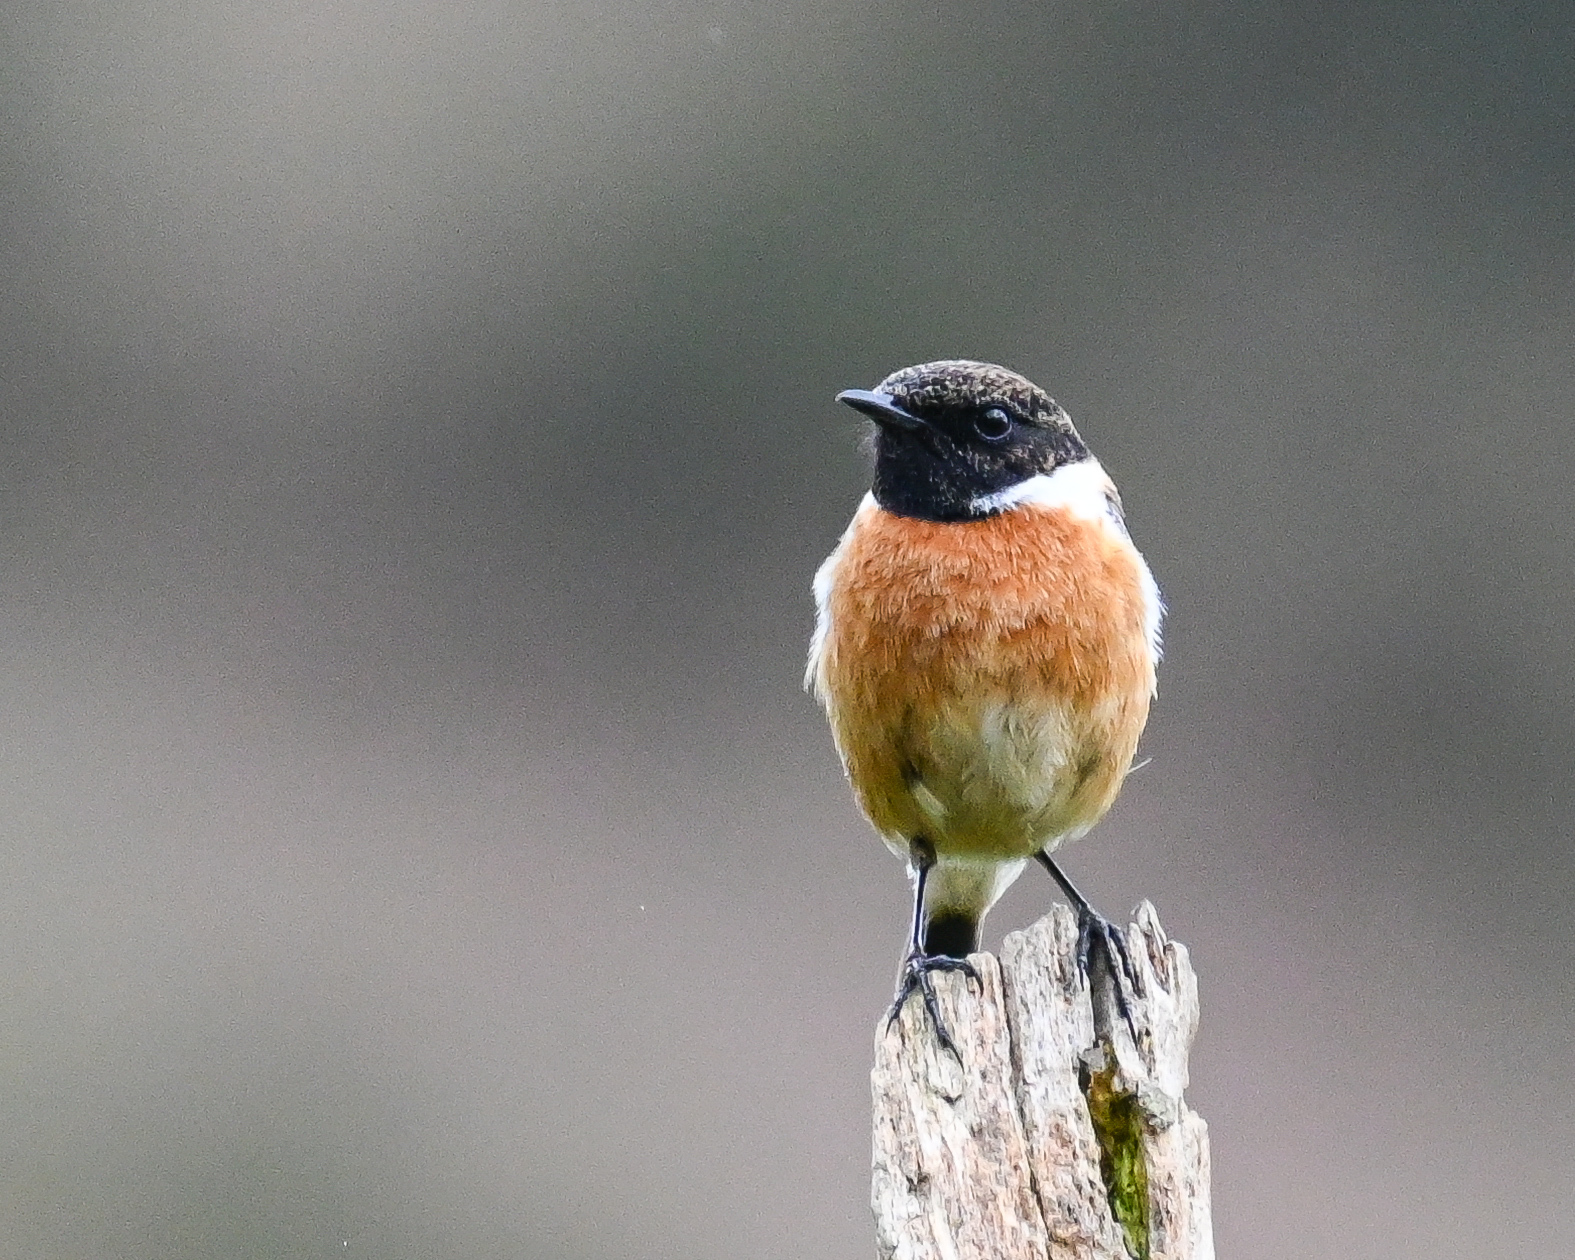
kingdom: Animalia
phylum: Chordata
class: Aves
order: Passeriformes
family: Muscicapidae
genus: Saxicola
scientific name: Saxicola rubicola
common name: European stonechat
